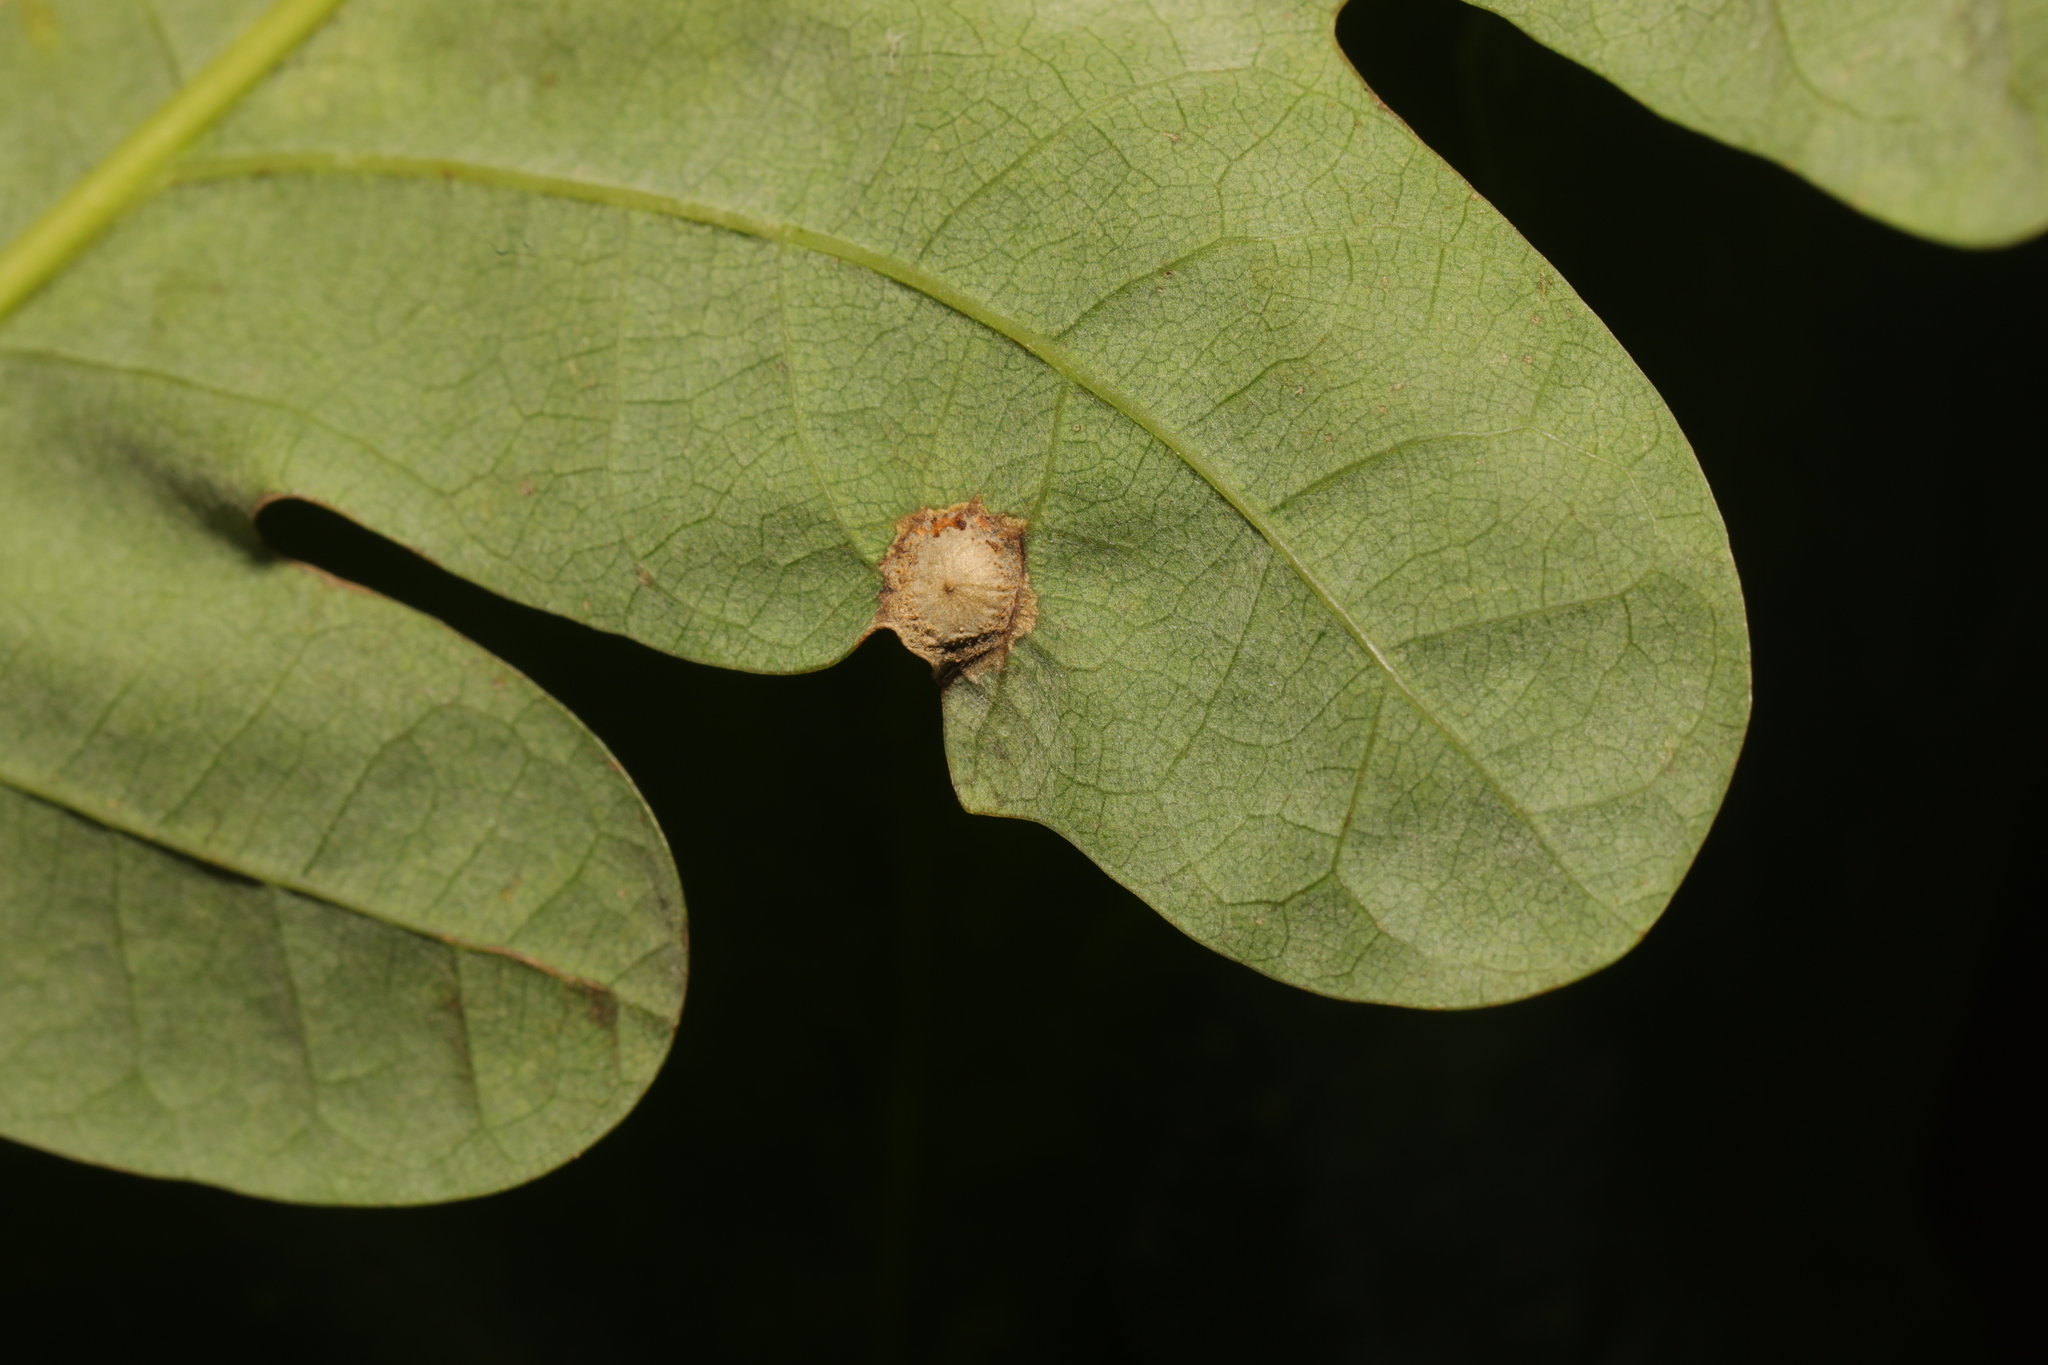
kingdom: Animalia
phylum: Arthropoda
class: Insecta
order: Hymenoptera
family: Cynipidae
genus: Neuroterus
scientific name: Neuroterus numismalis
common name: Silk-button spangle gall
